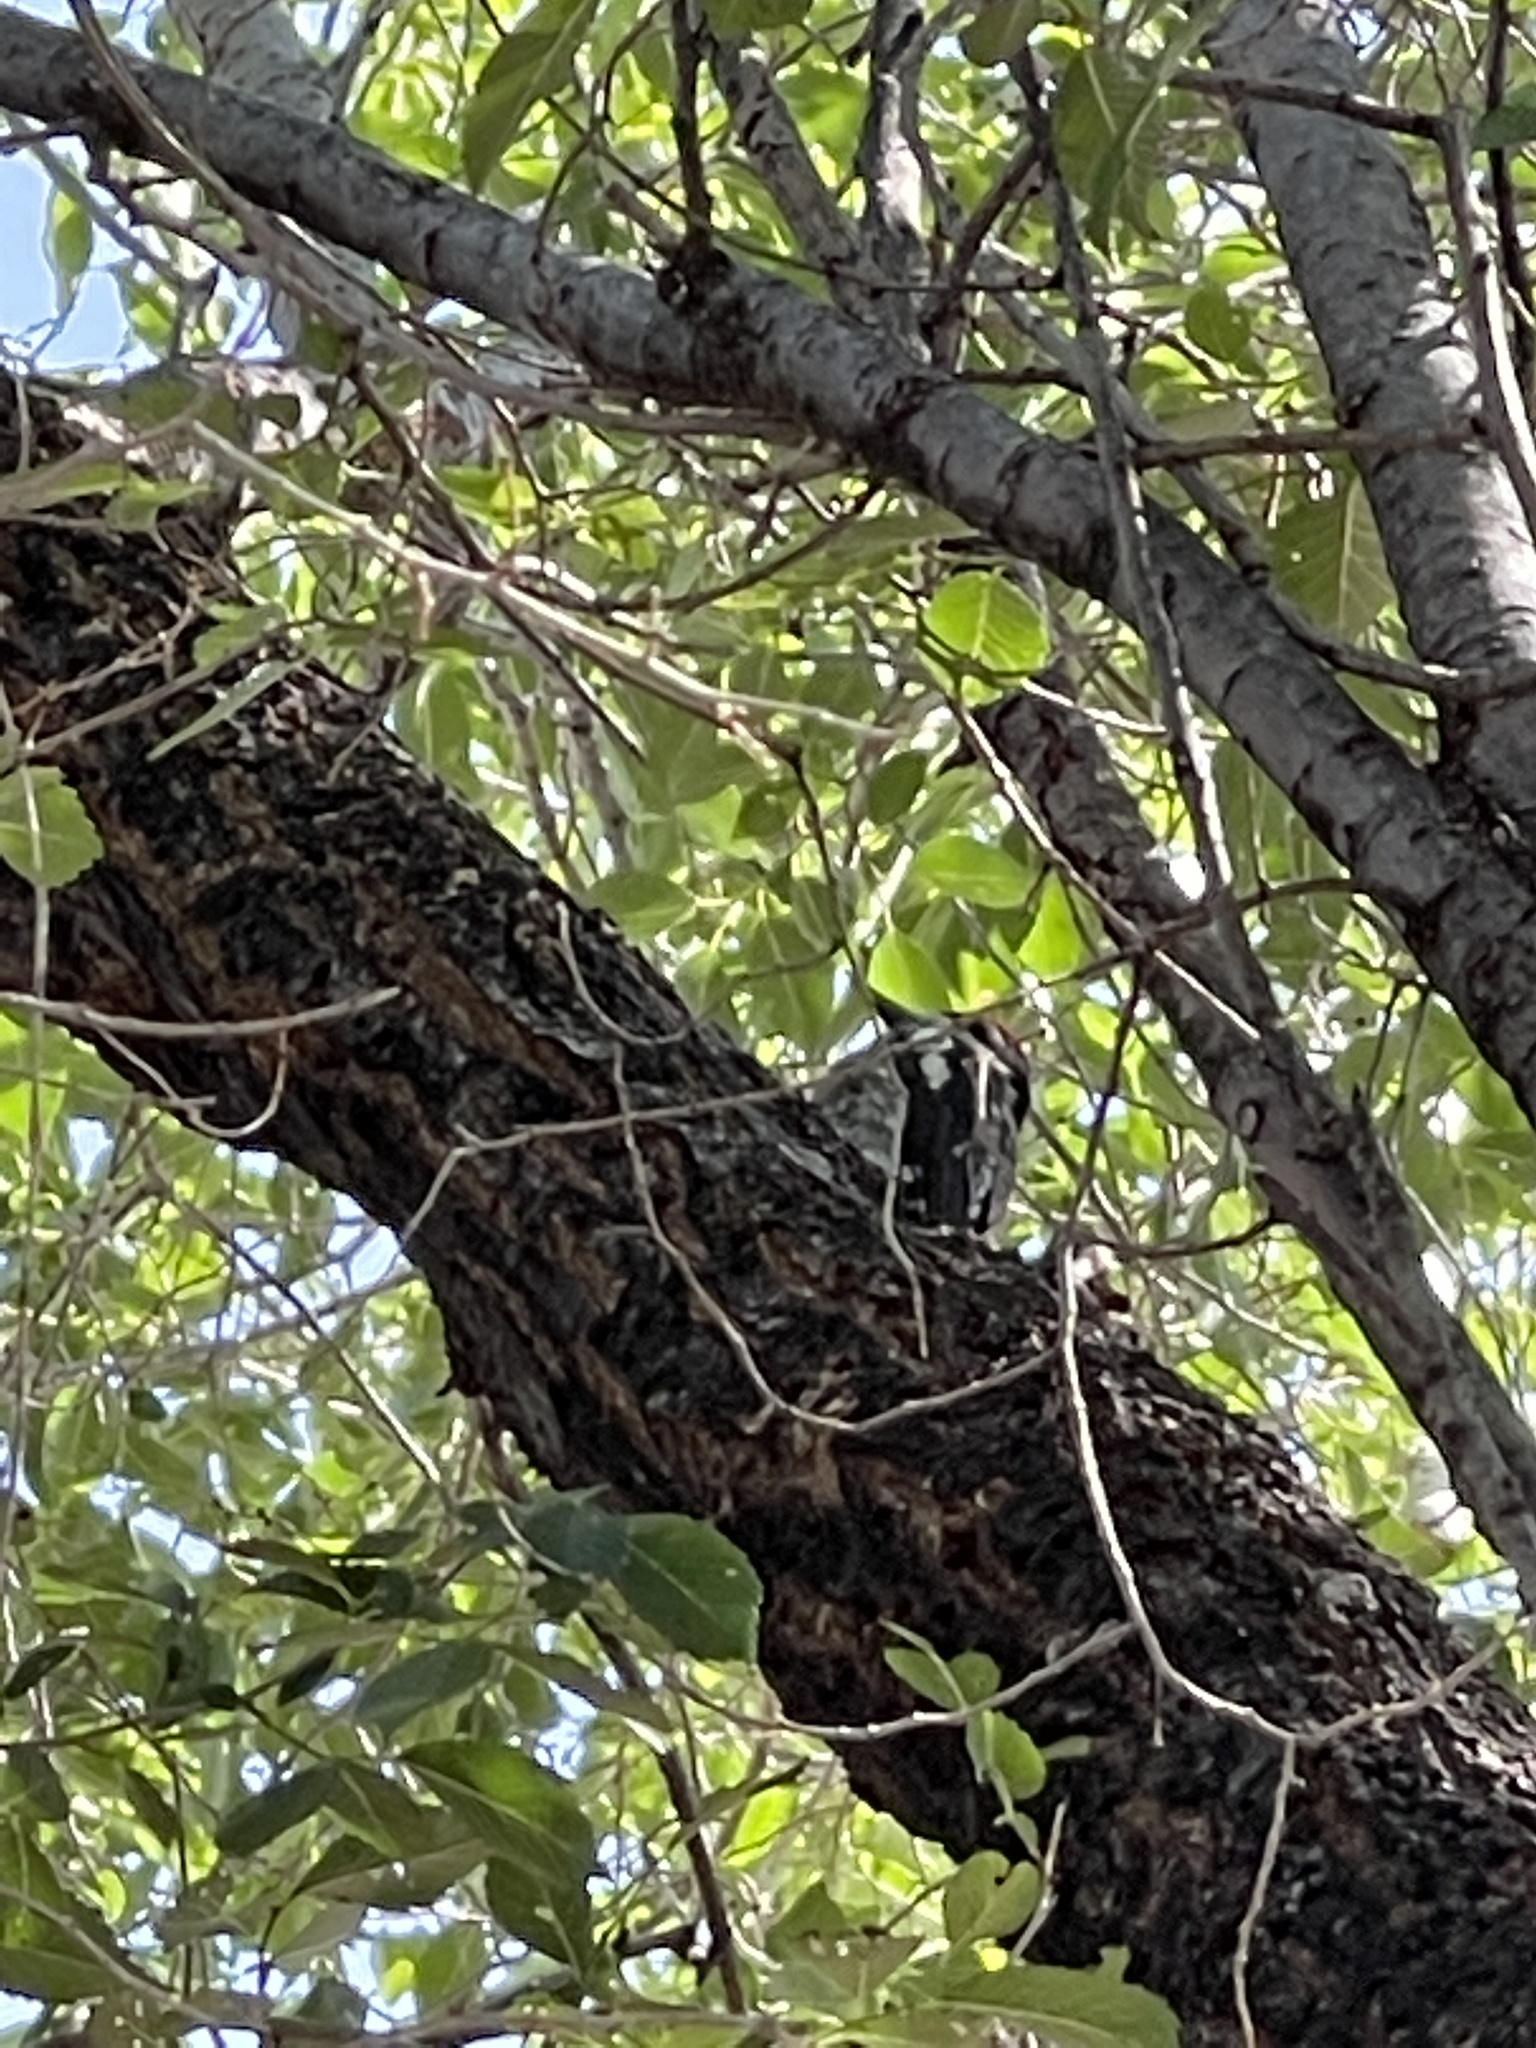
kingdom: Animalia
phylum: Chordata
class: Aves
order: Piciformes
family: Picidae
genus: Sphyrapicus
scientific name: Sphyrapicus nuchalis
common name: Red-naped sapsucker
